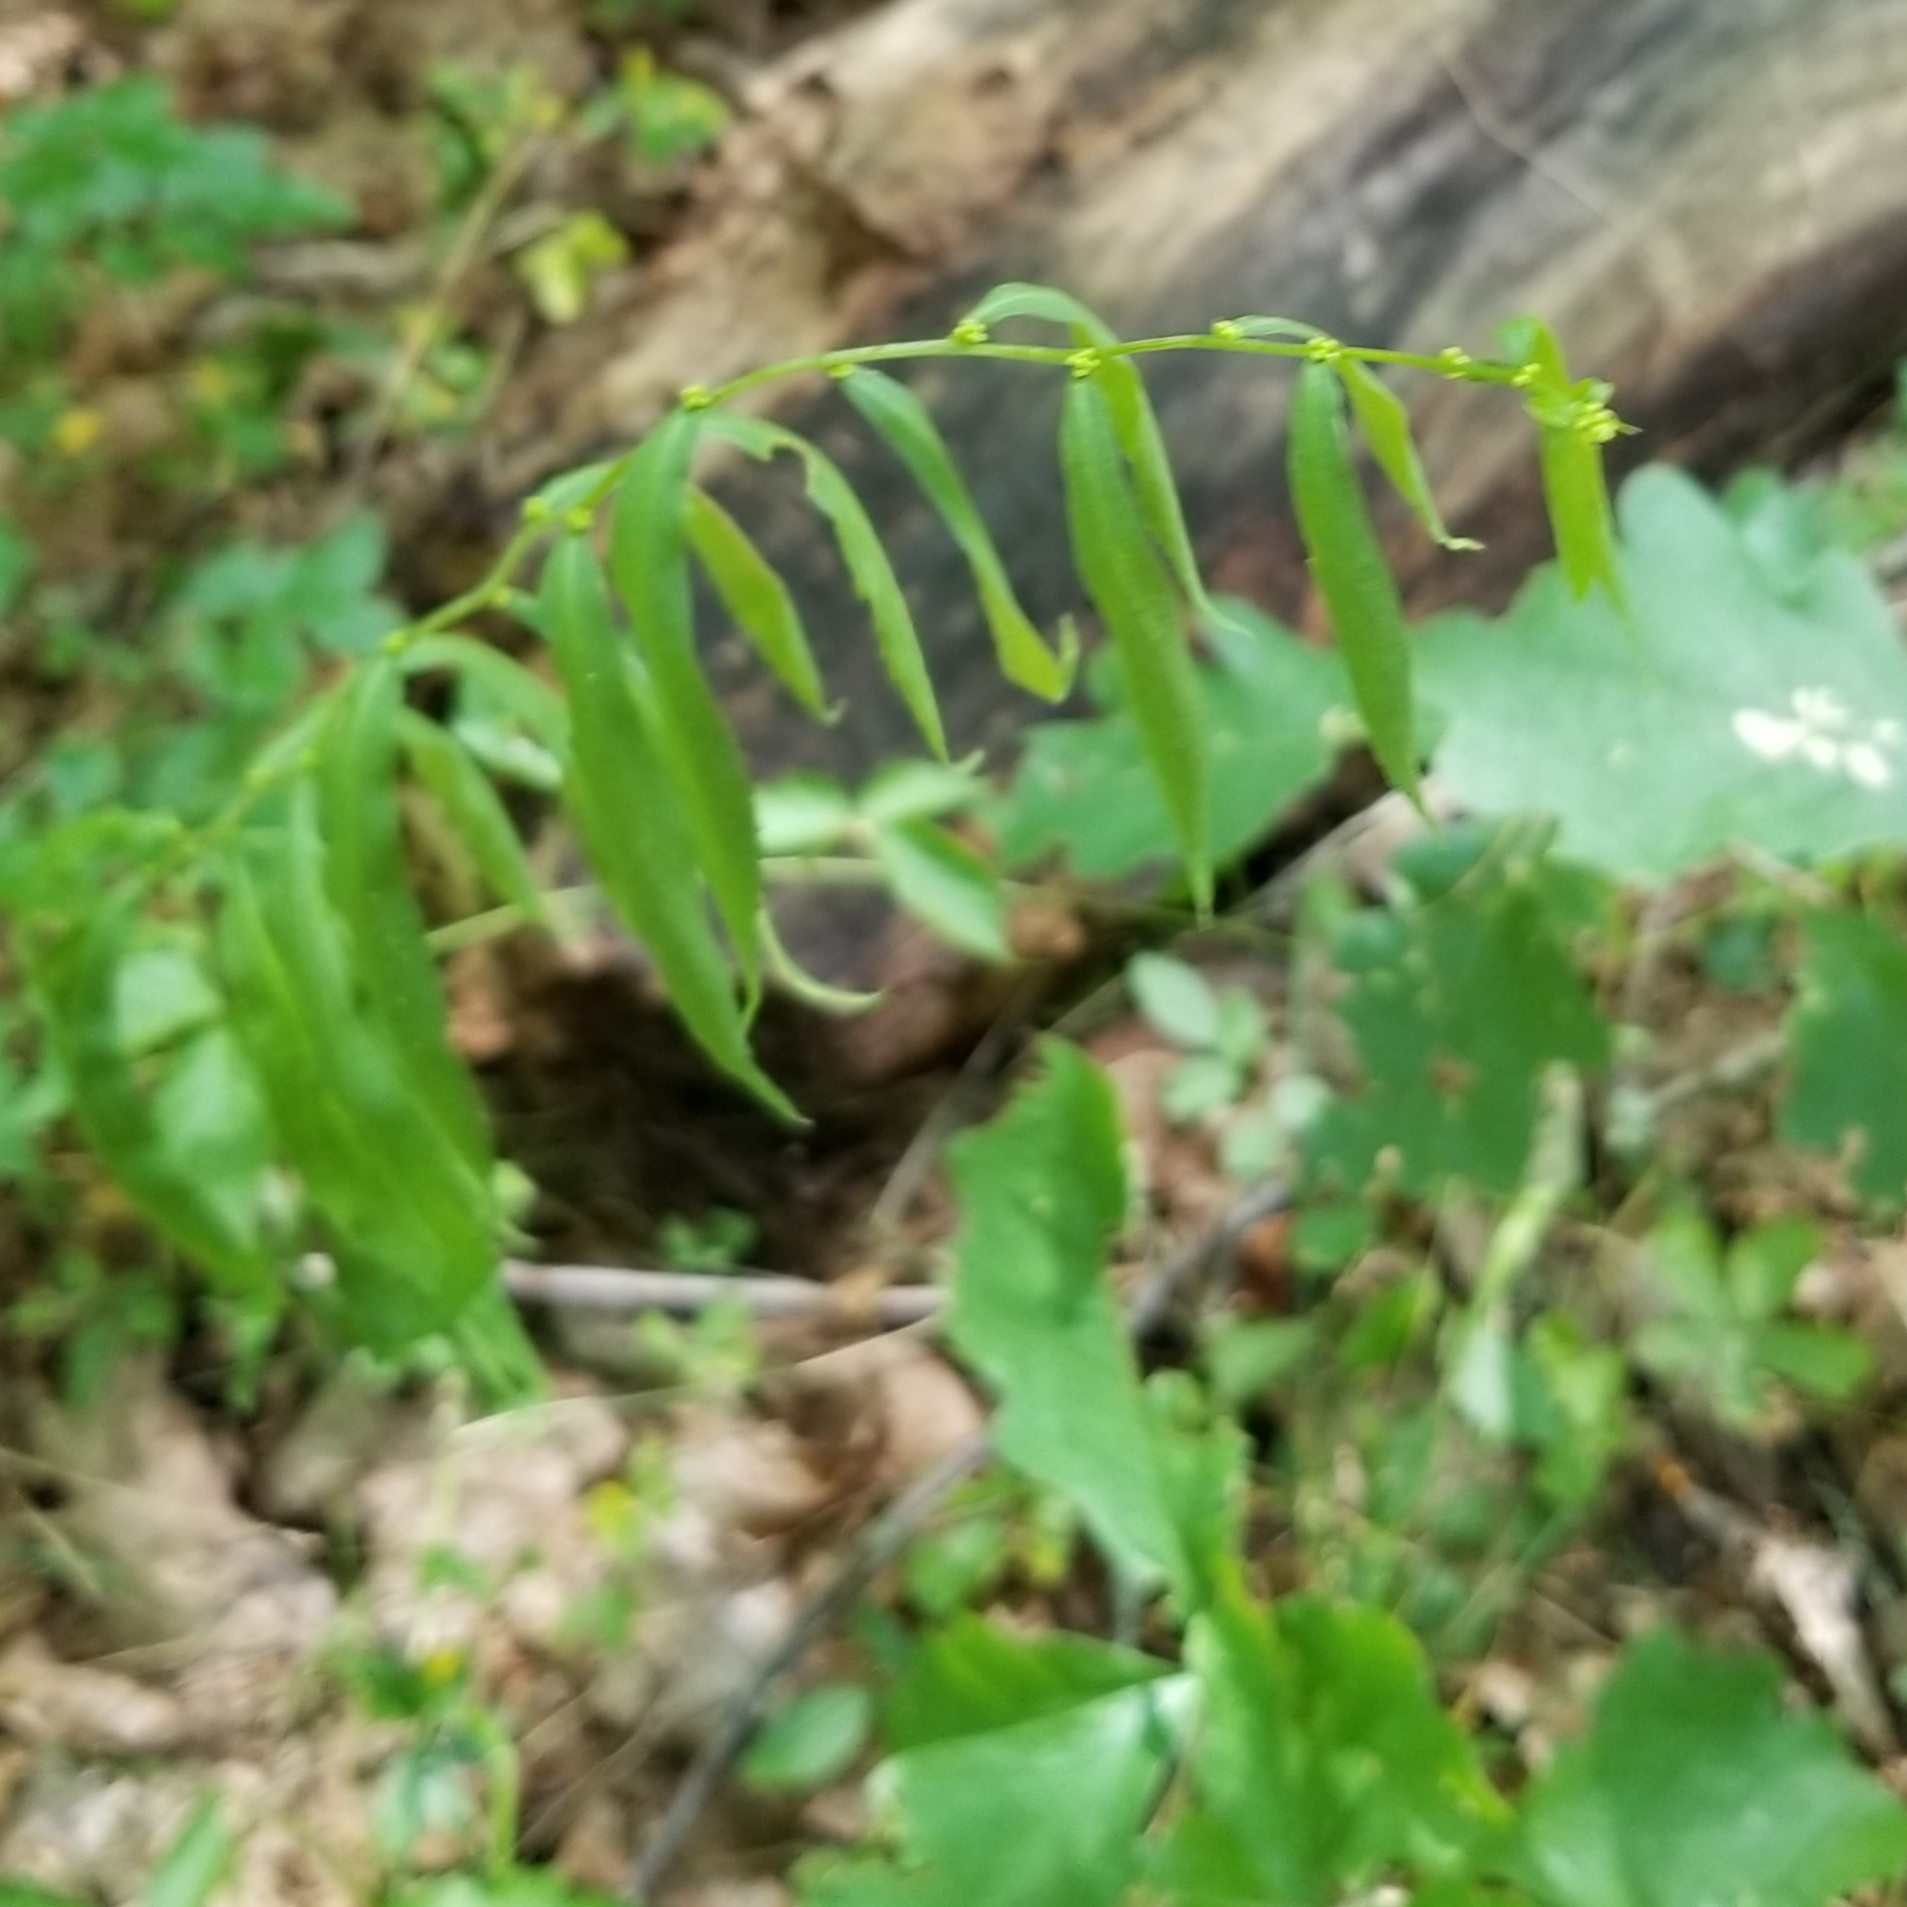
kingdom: Plantae
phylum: Tracheophyta
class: Magnoliopsida
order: Asterales
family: Asteraceae
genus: Solidago
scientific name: Solidago caesia
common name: Woodland goldenrod
